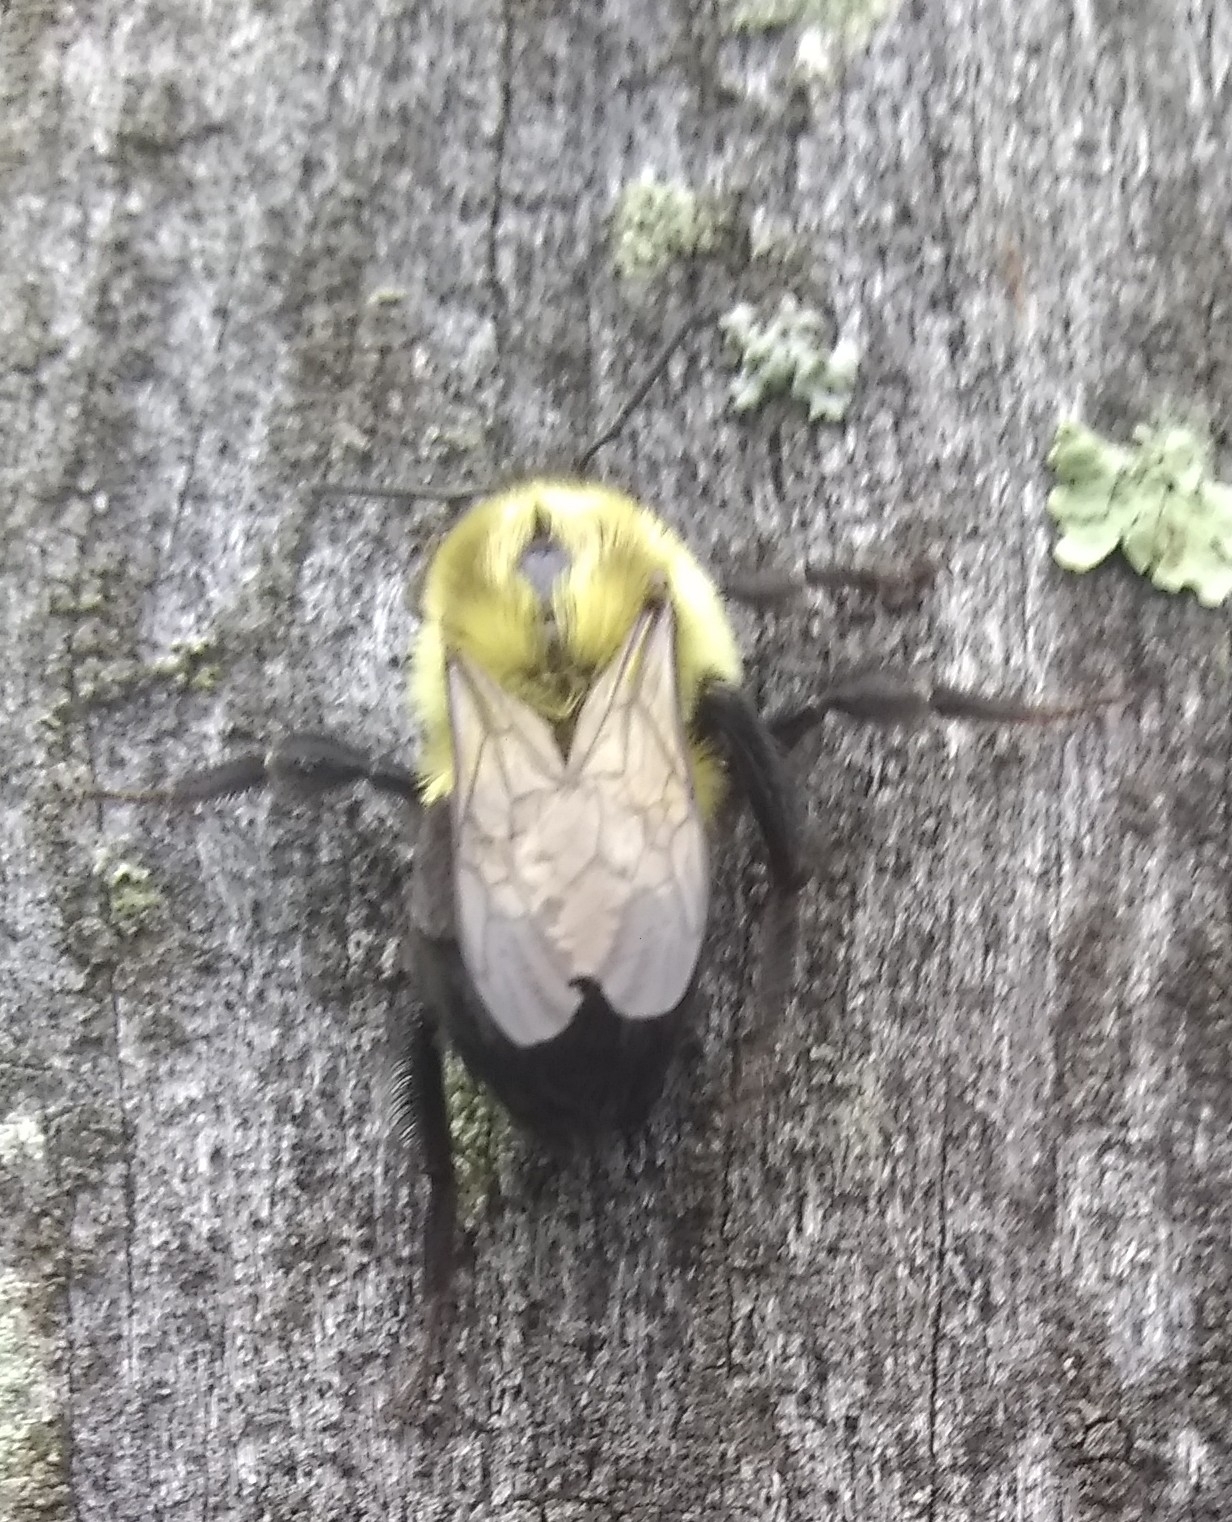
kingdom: Animalia
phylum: Arthropoda
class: Insecta
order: Hymenoptera
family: Apidae
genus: Bombus
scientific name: Bombus impatiens
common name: Common eastern bumble bee
